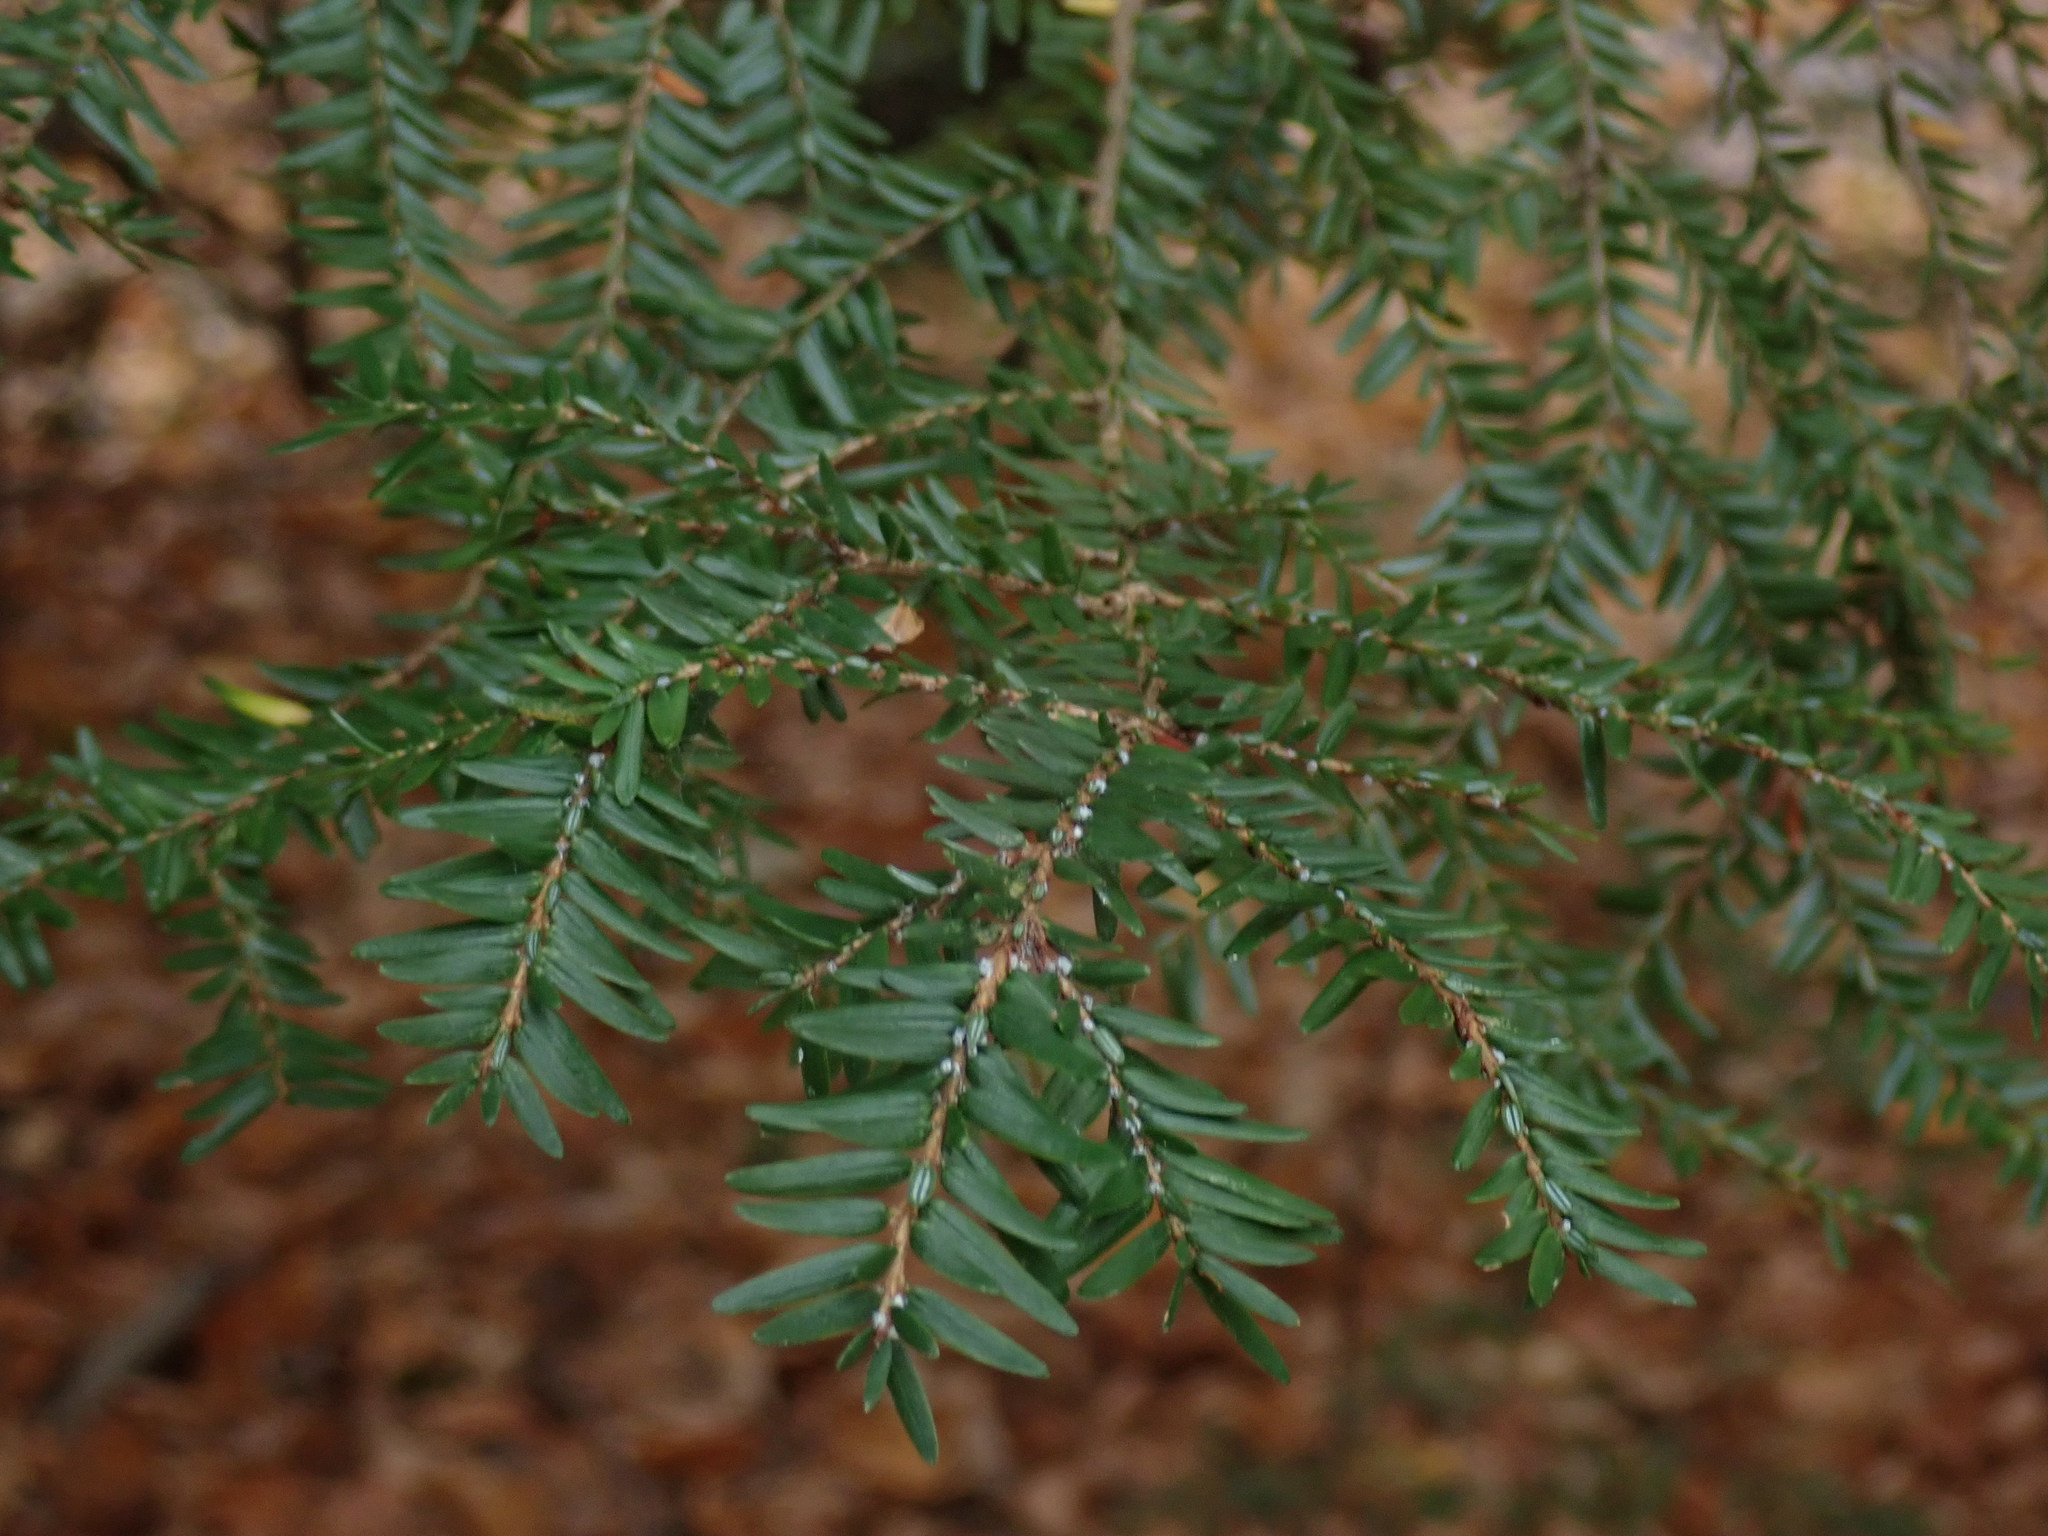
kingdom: Plantae
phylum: Tracheophyta
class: Pinopsida
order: Pinales
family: Pinaceae
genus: Tsuga
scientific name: Tsuga canadensis
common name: Eastern hemlock
